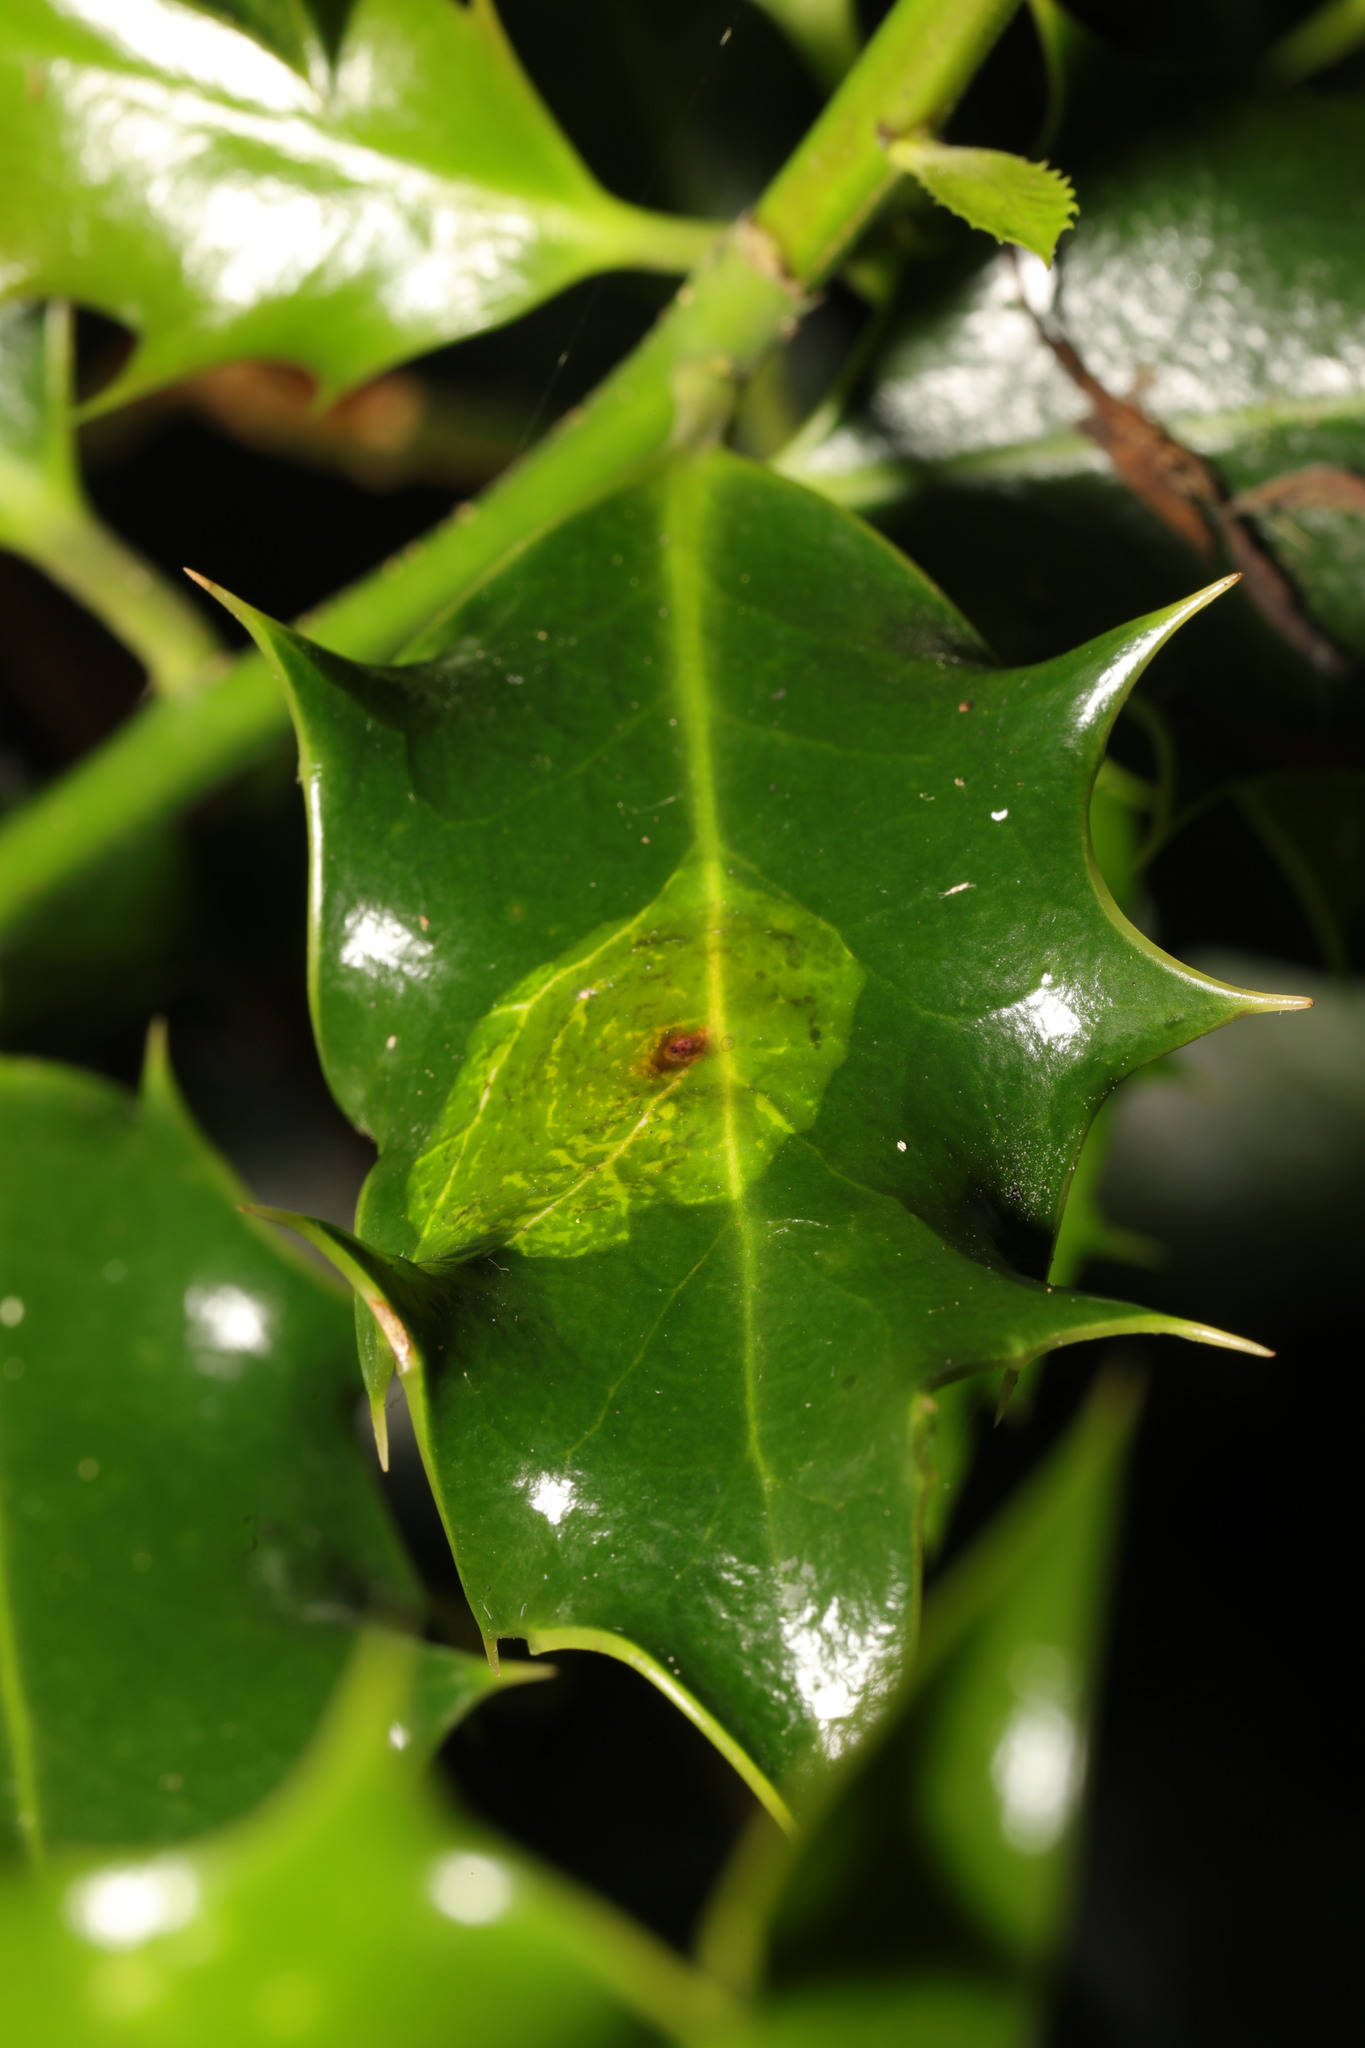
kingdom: Animalia
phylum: Arthropoda
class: Insecta
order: Diptera
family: Agromyzidae
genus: Phytomyza
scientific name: Phytomyza ilicis
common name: Holly leafminer
